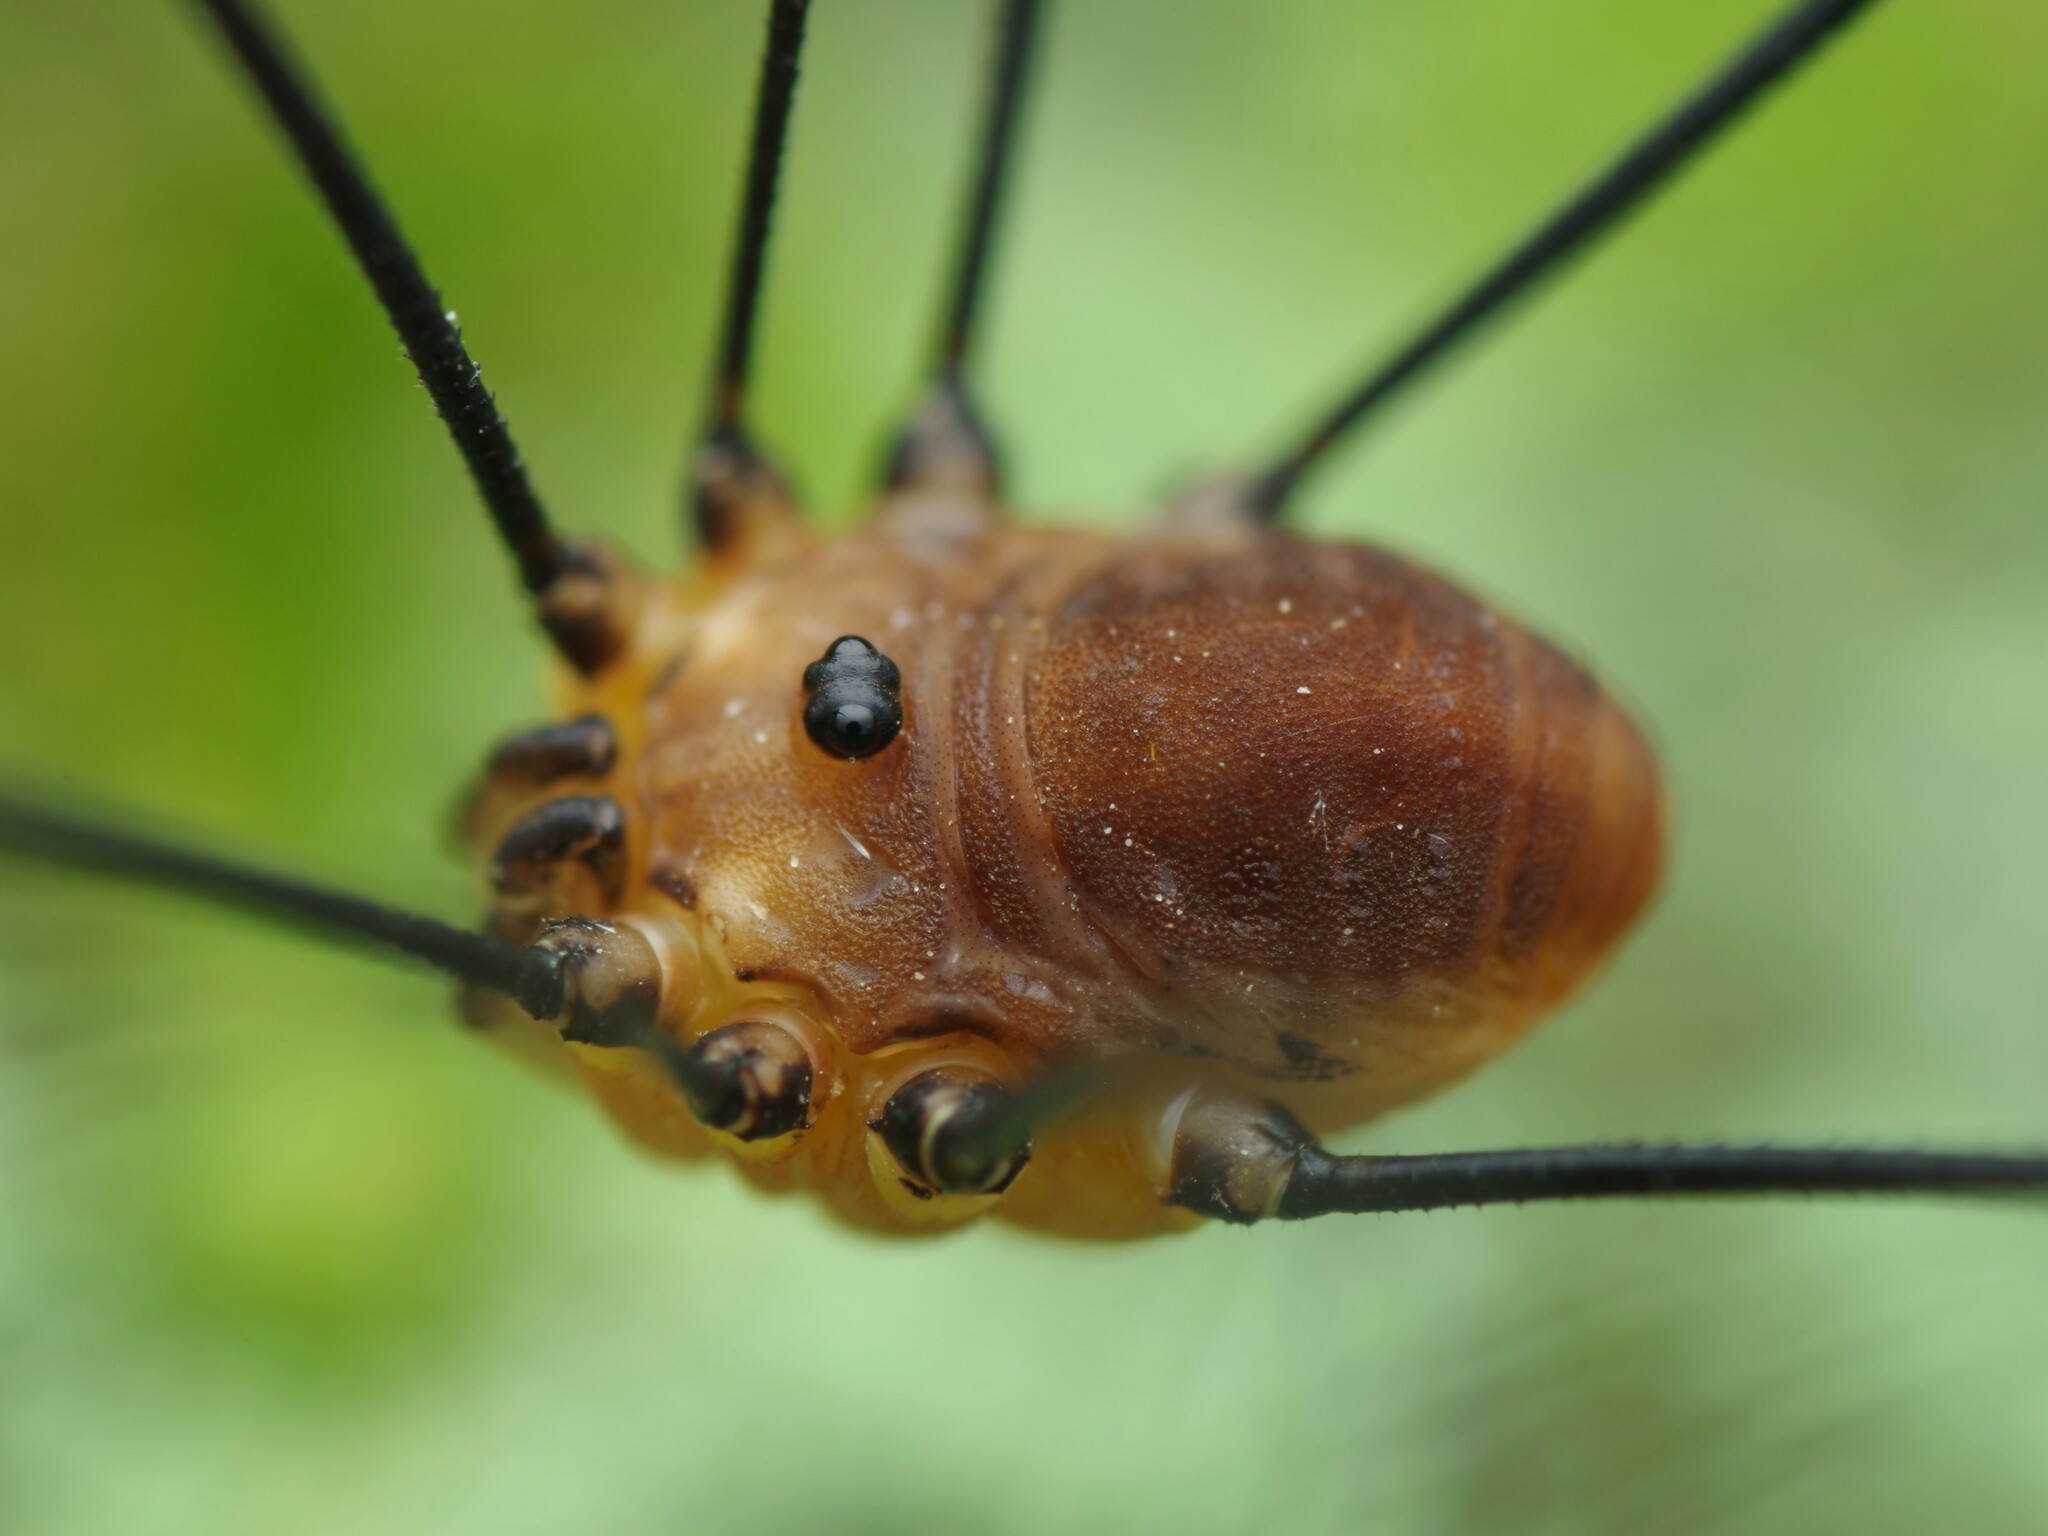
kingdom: Animalia
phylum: Arthropoda
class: Arachnida
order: Opiliones
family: Sclerosomatidae
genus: Leiobunum
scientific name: Leiobunum rotundum
